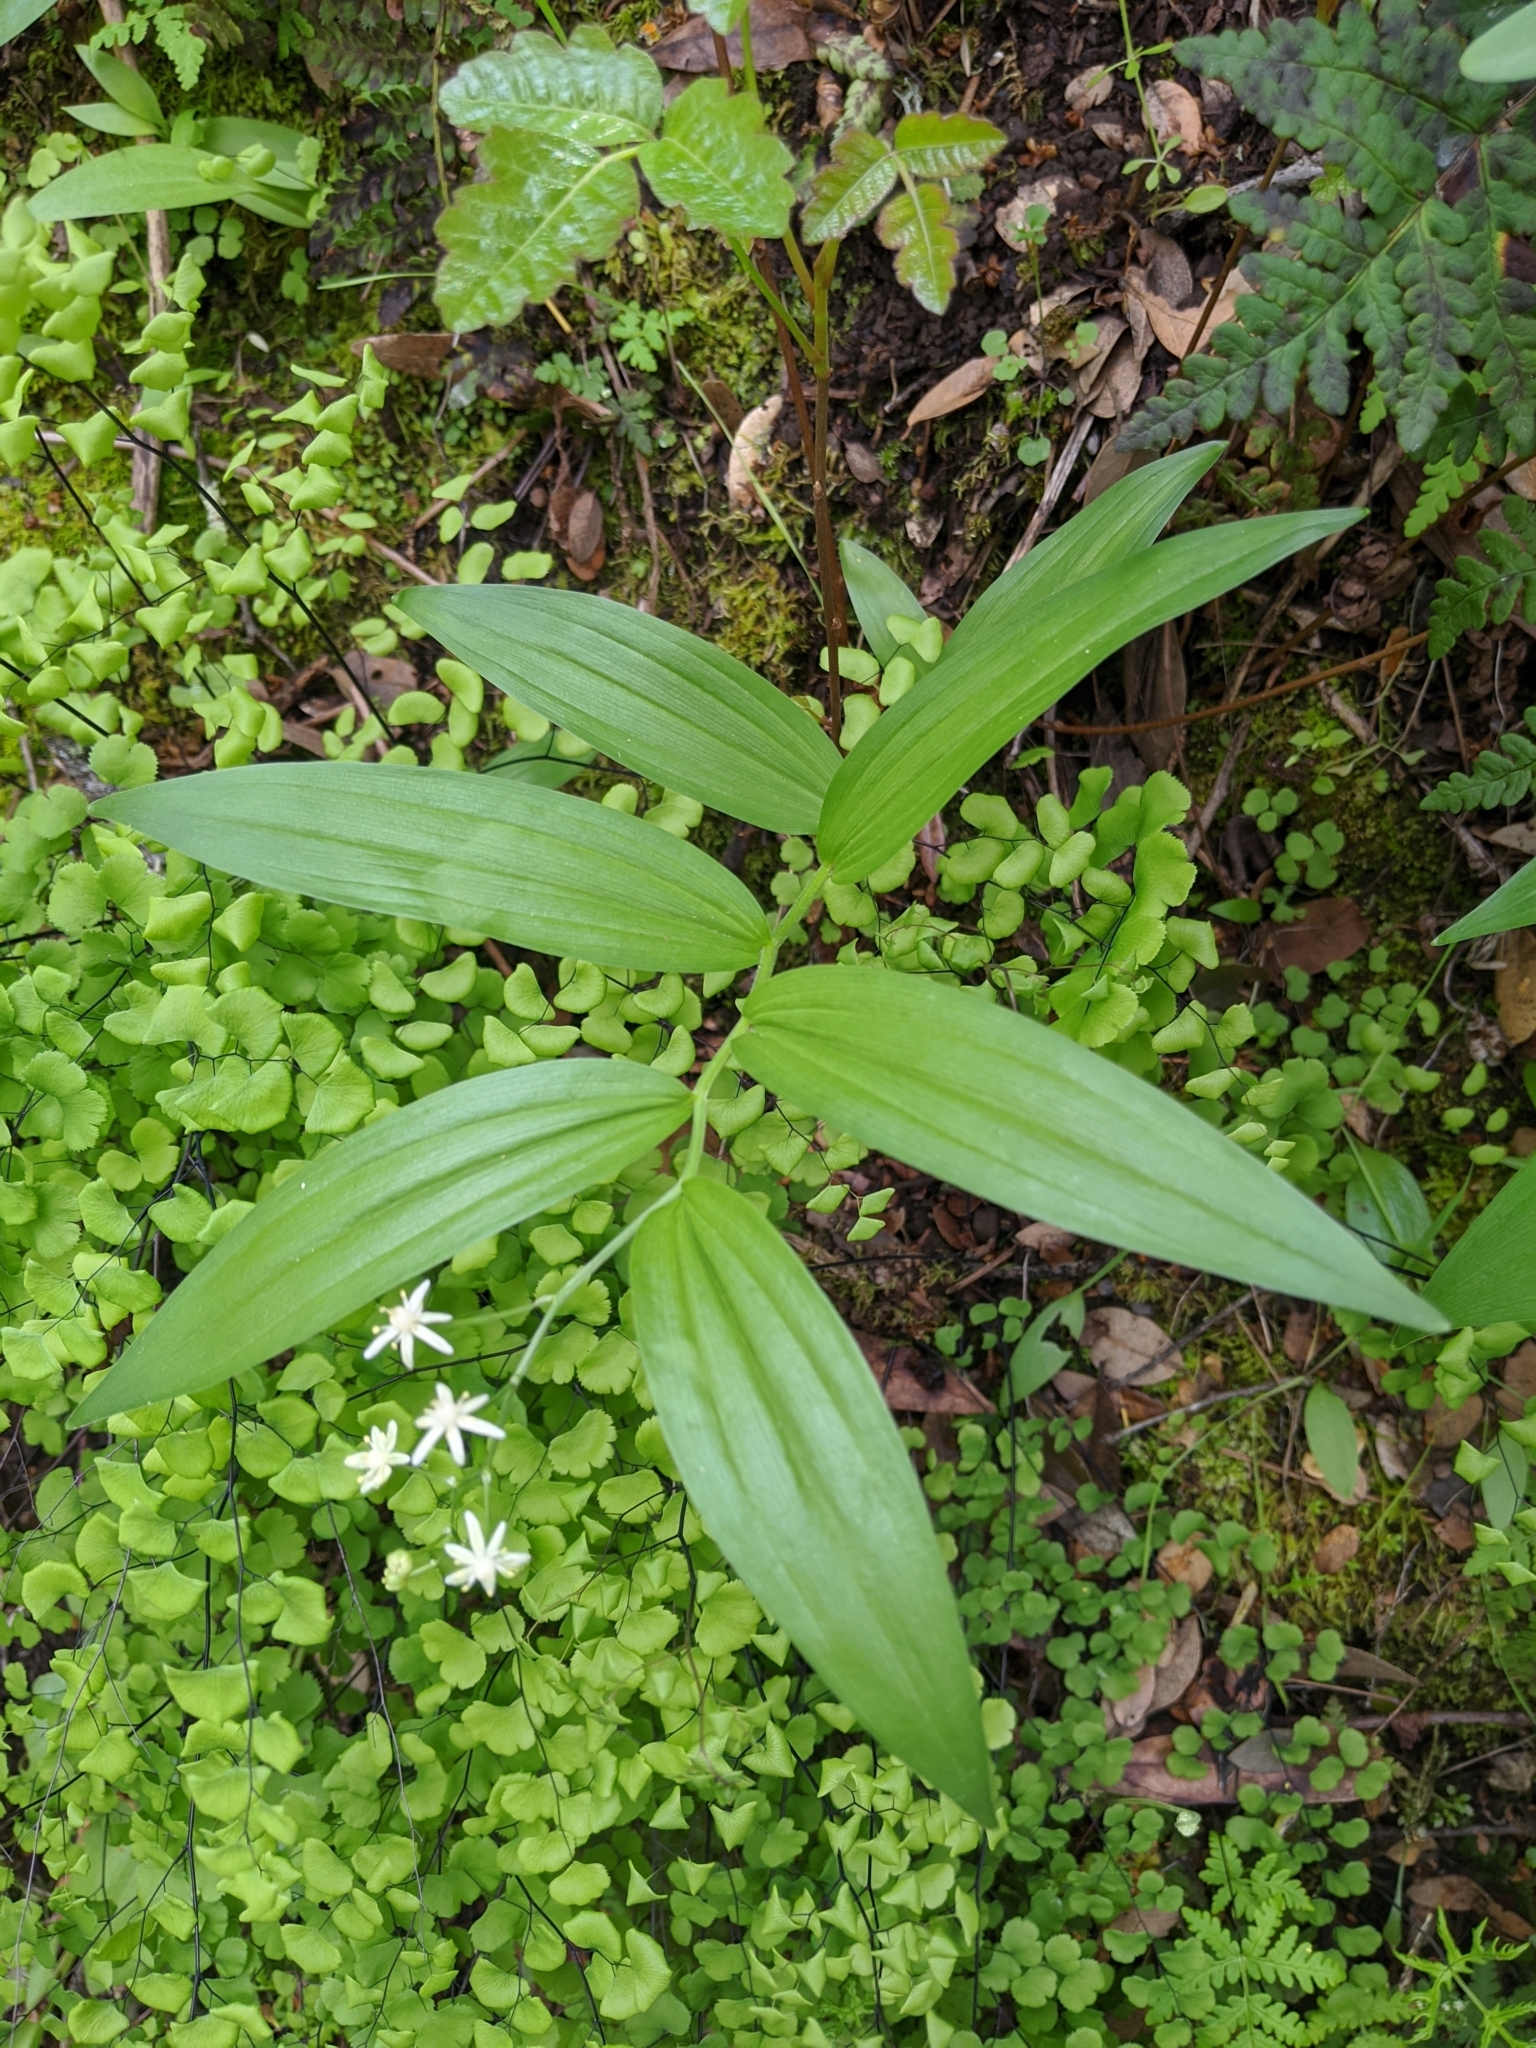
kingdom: Plantae
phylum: Tracheophyta
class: Liliopsida
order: Asparagales
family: Asparagaceae
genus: Maianthemum
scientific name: Maianthemum stellatum
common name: Little false solomon's seal
